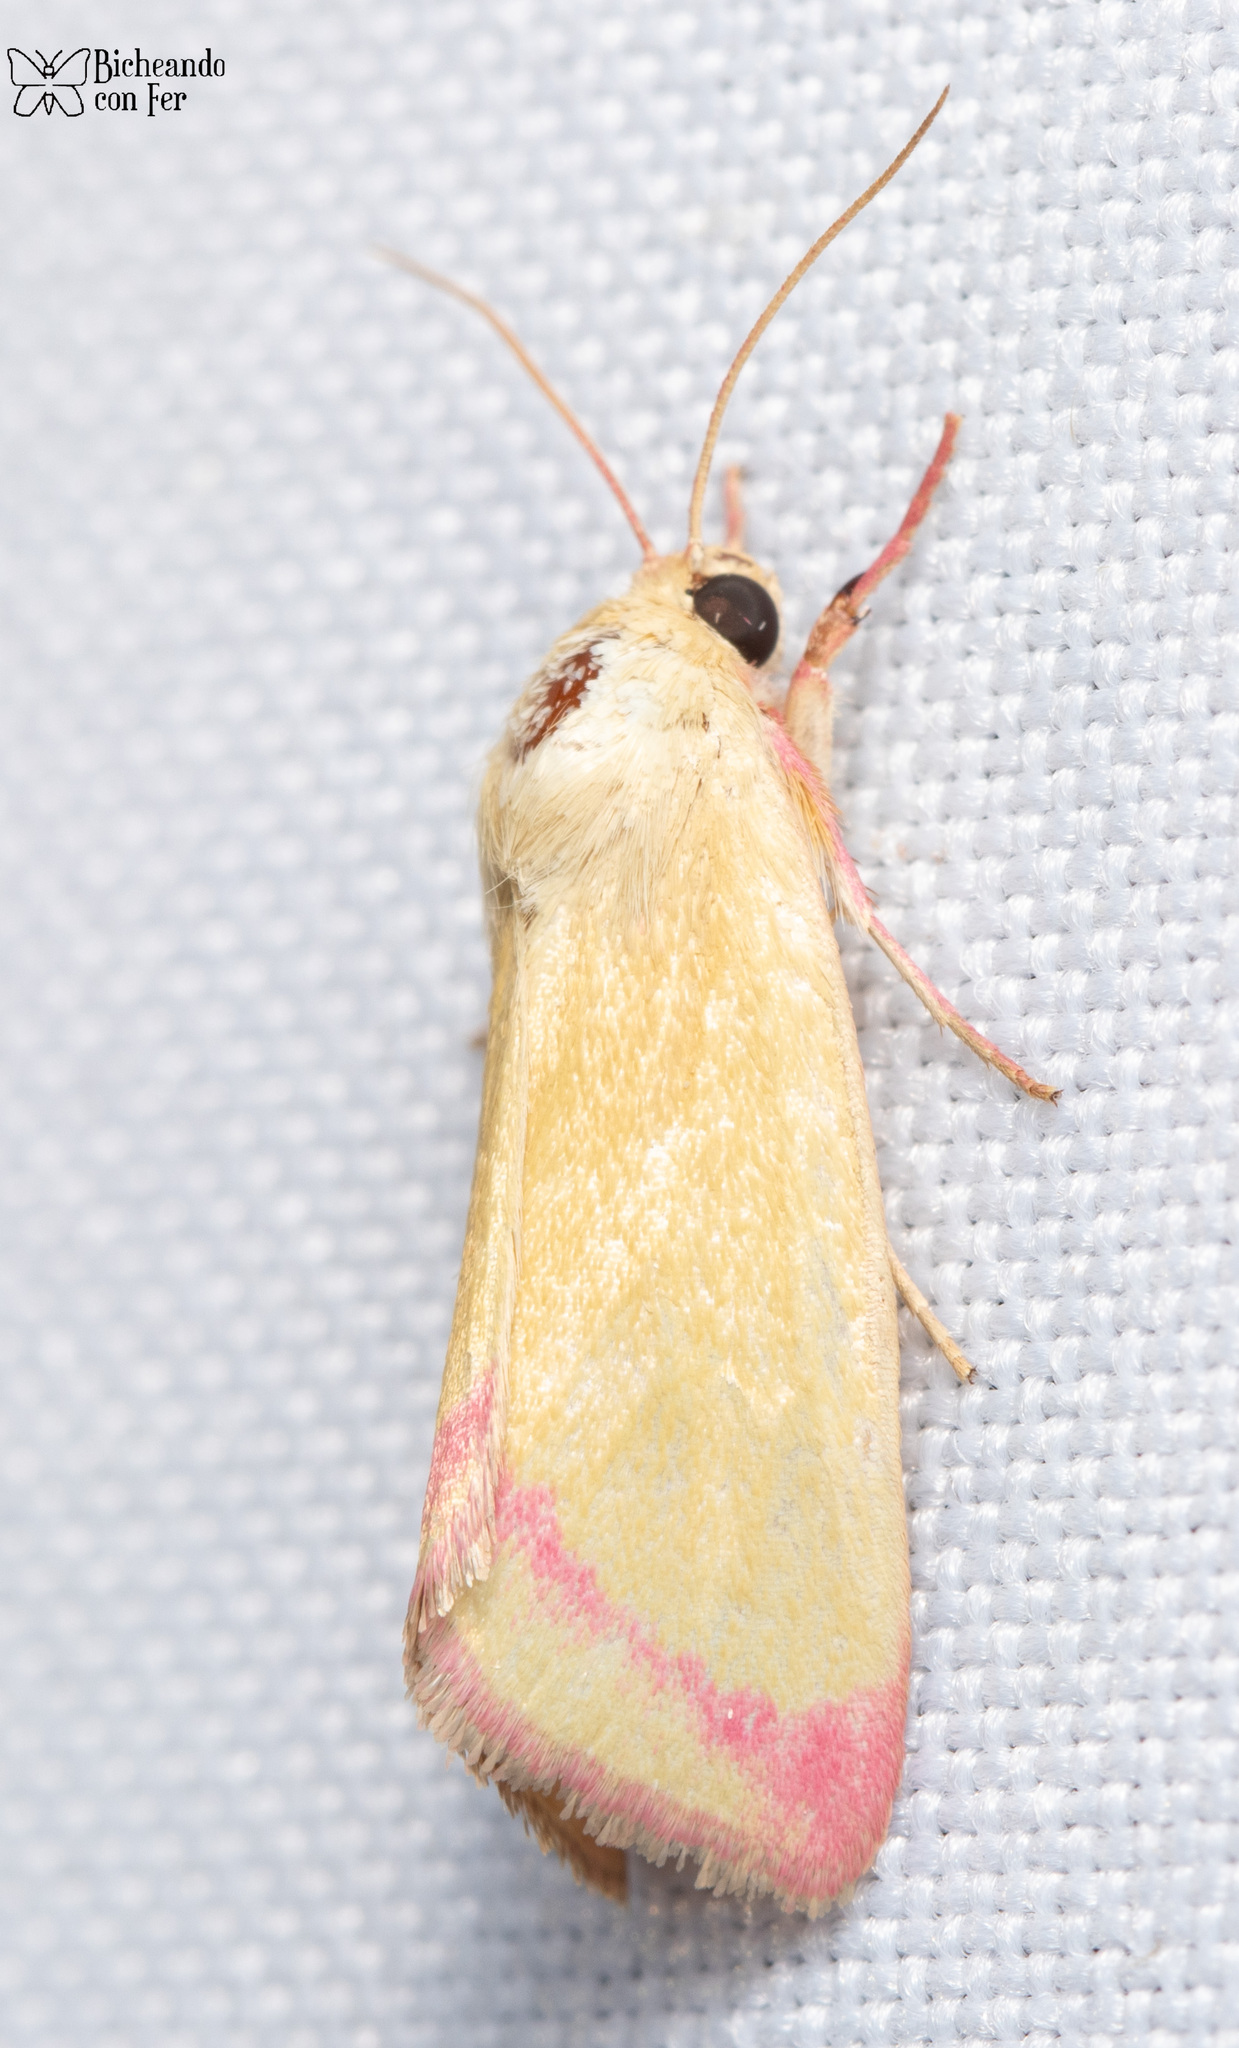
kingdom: Animalia
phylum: Arthropoda
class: Insecta
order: Lepidoptera
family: Noctuidae
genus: Heliocheilus
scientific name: Heliocheilus toralis
